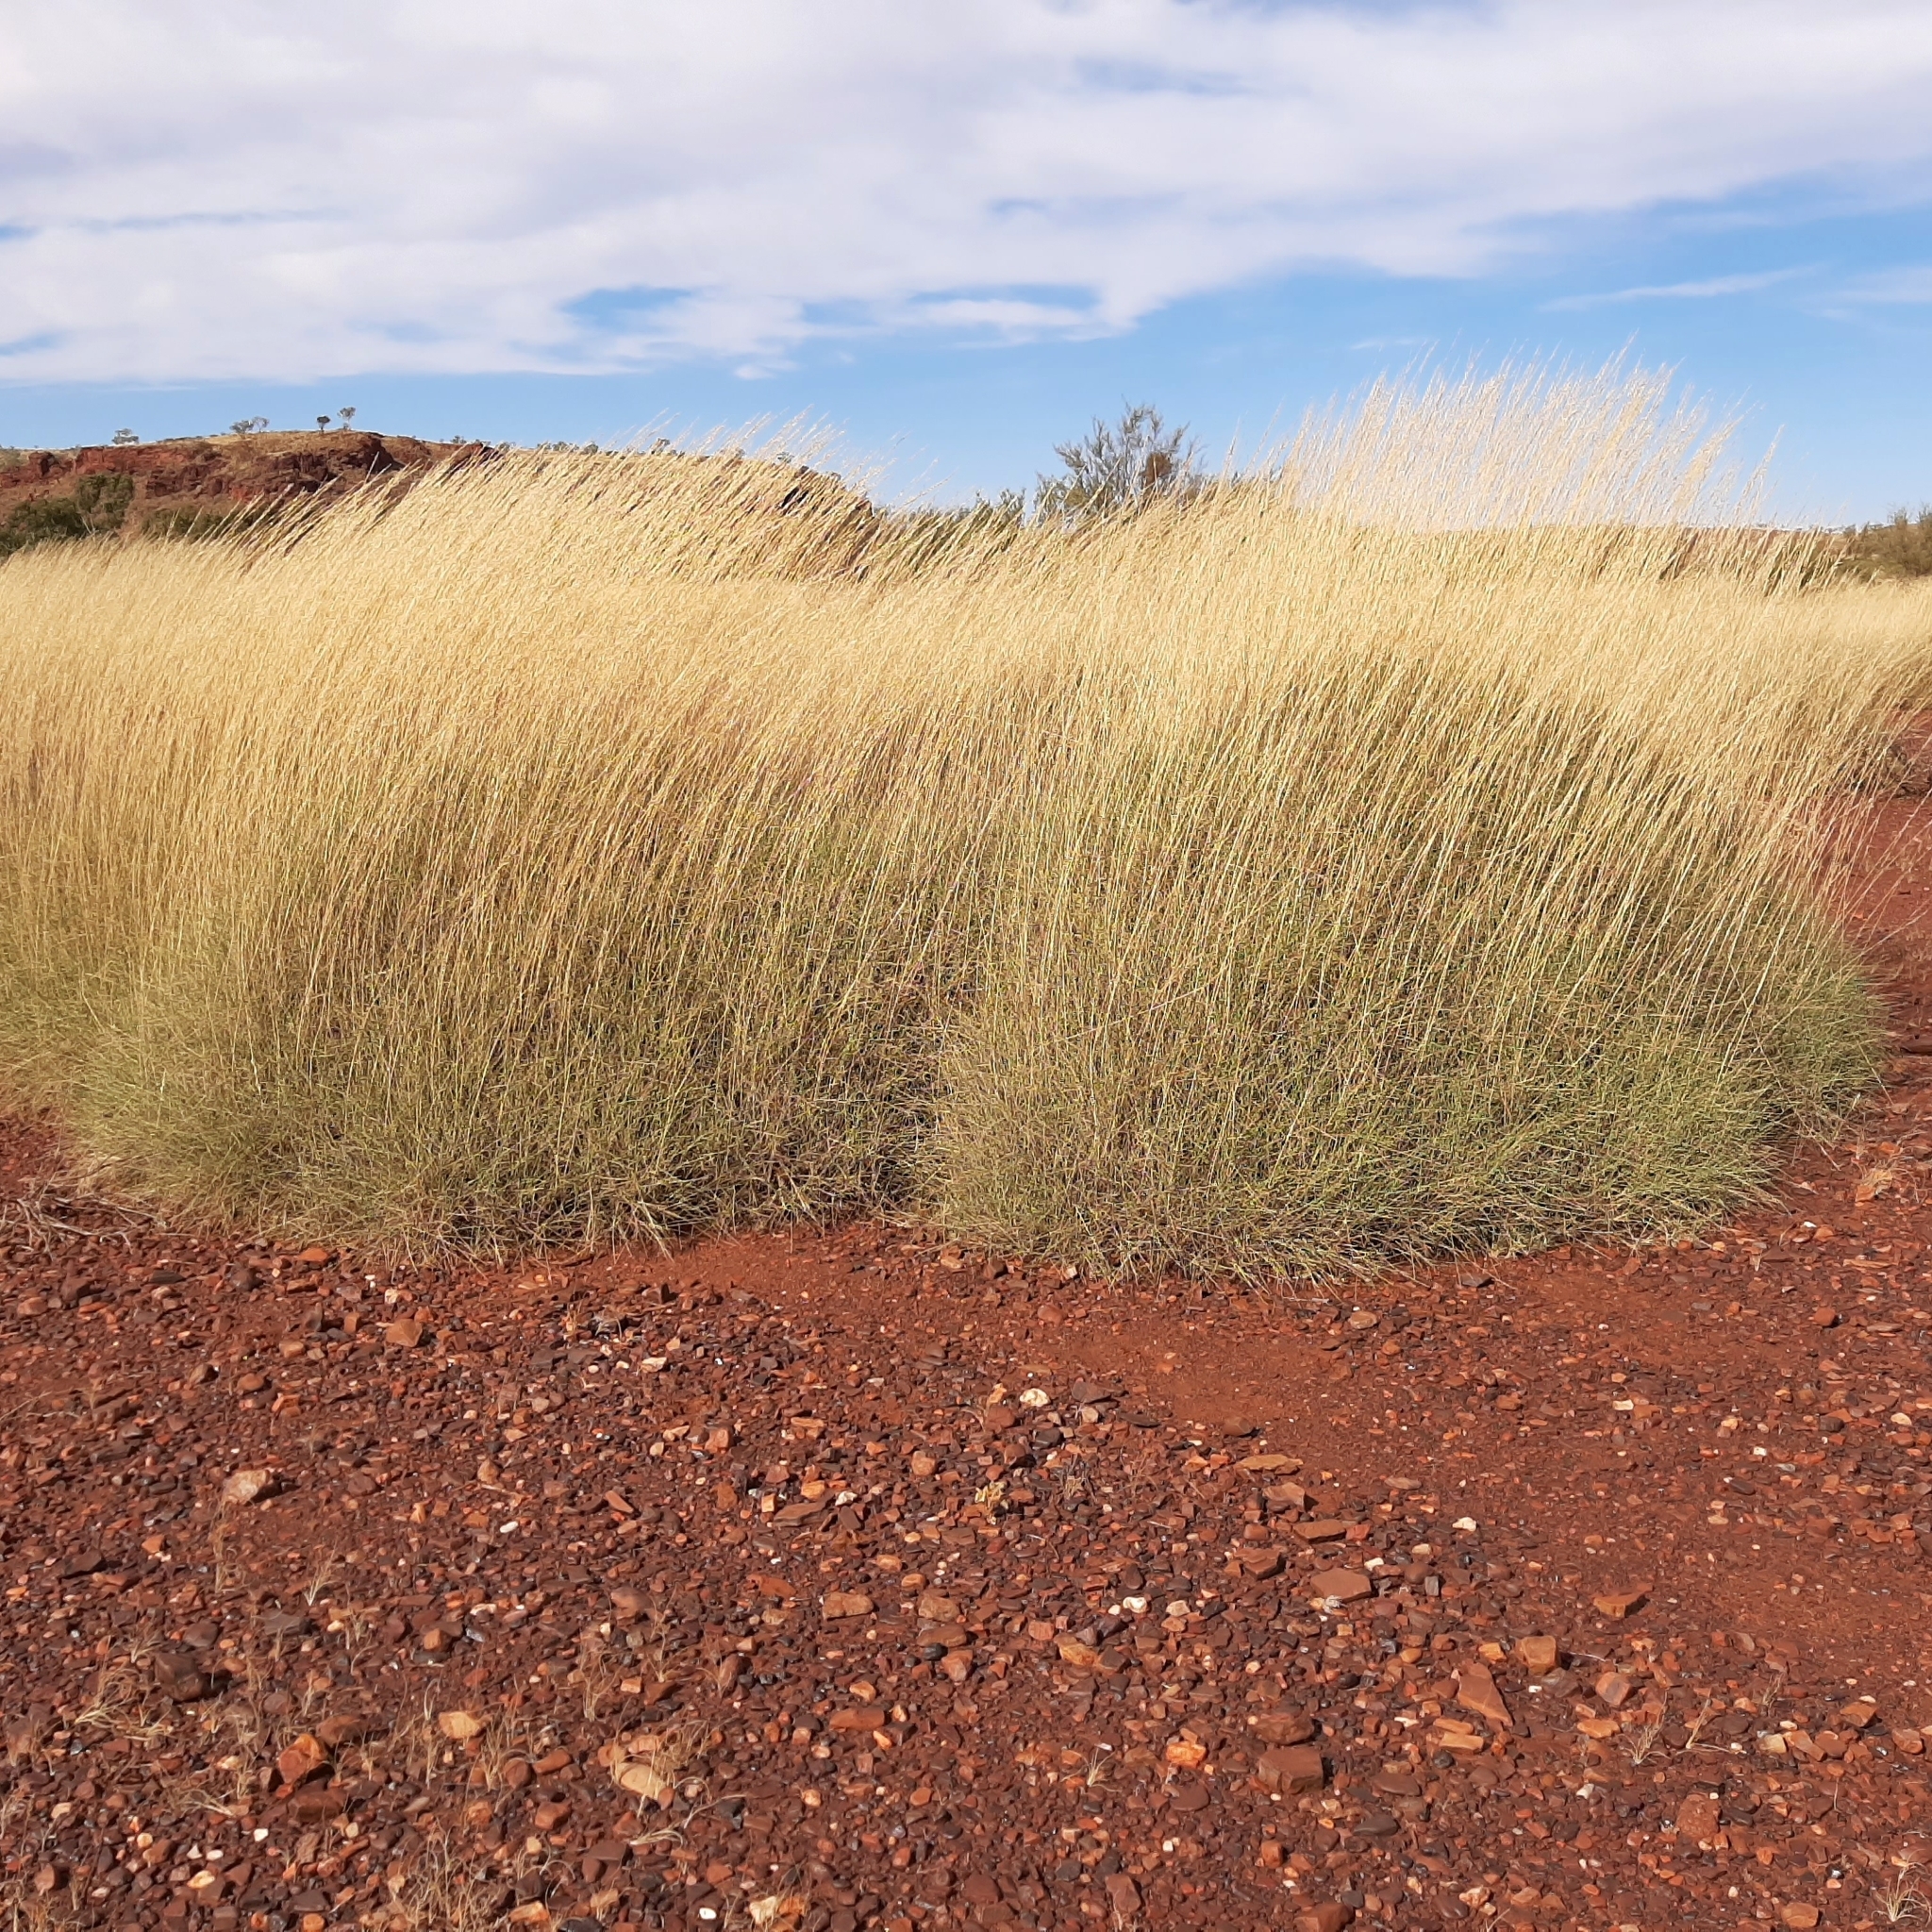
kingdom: Plantae
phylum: Tracheophyta
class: Liliopsida
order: Poales
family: Poaceae
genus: Triodia
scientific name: Triodia longiceps
